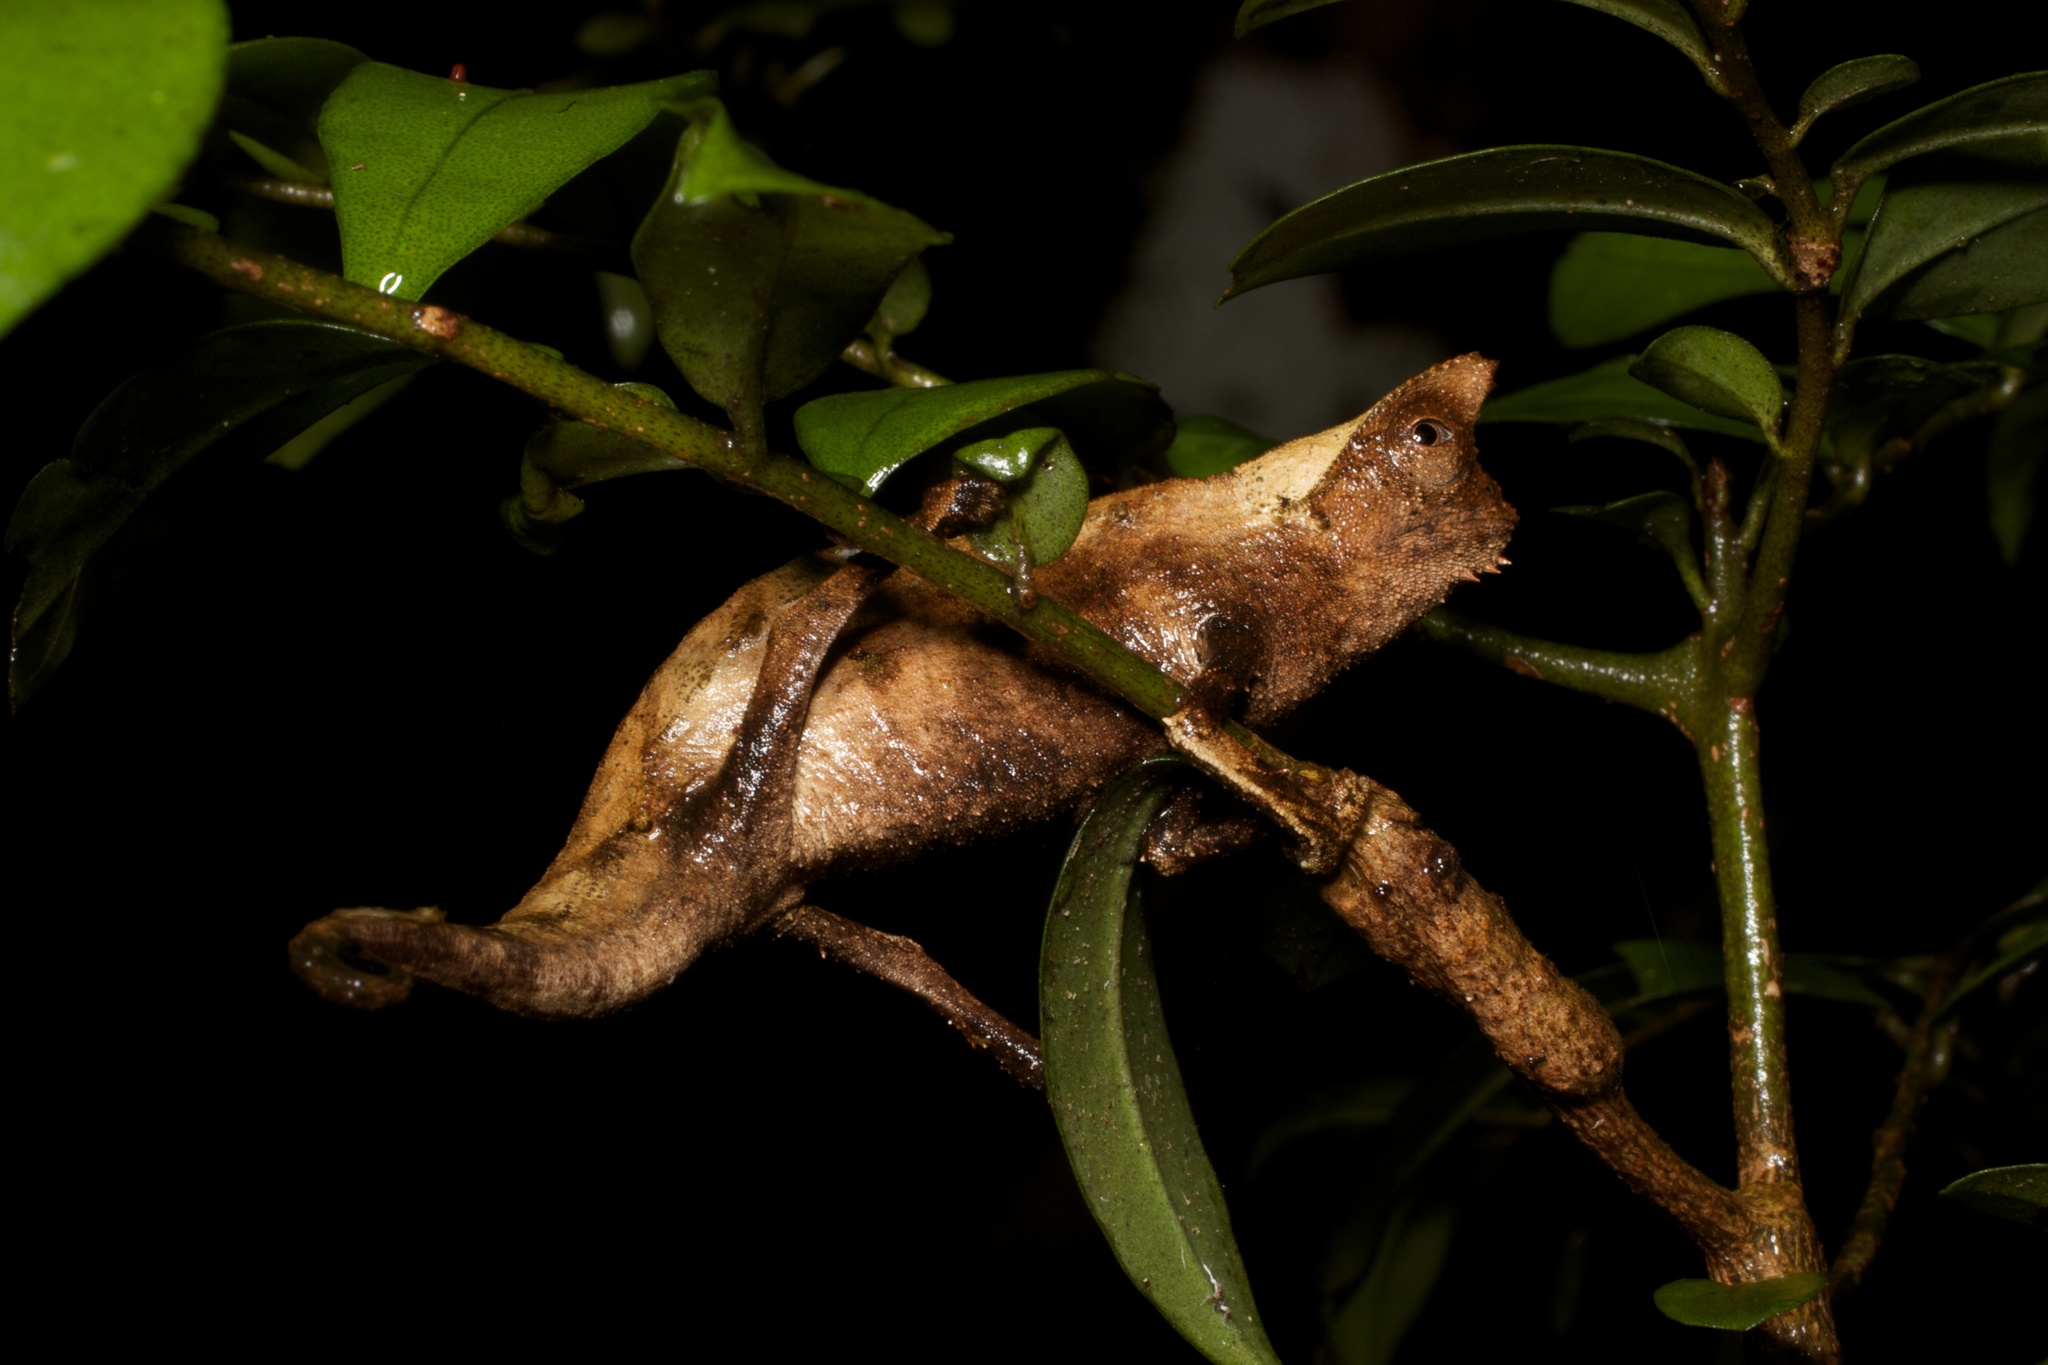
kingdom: Animalia
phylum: Chordata
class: Squamata
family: Chamaeleonidae
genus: Brookesia
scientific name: Brookesia superciliaris
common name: Brown leaf chameleon
